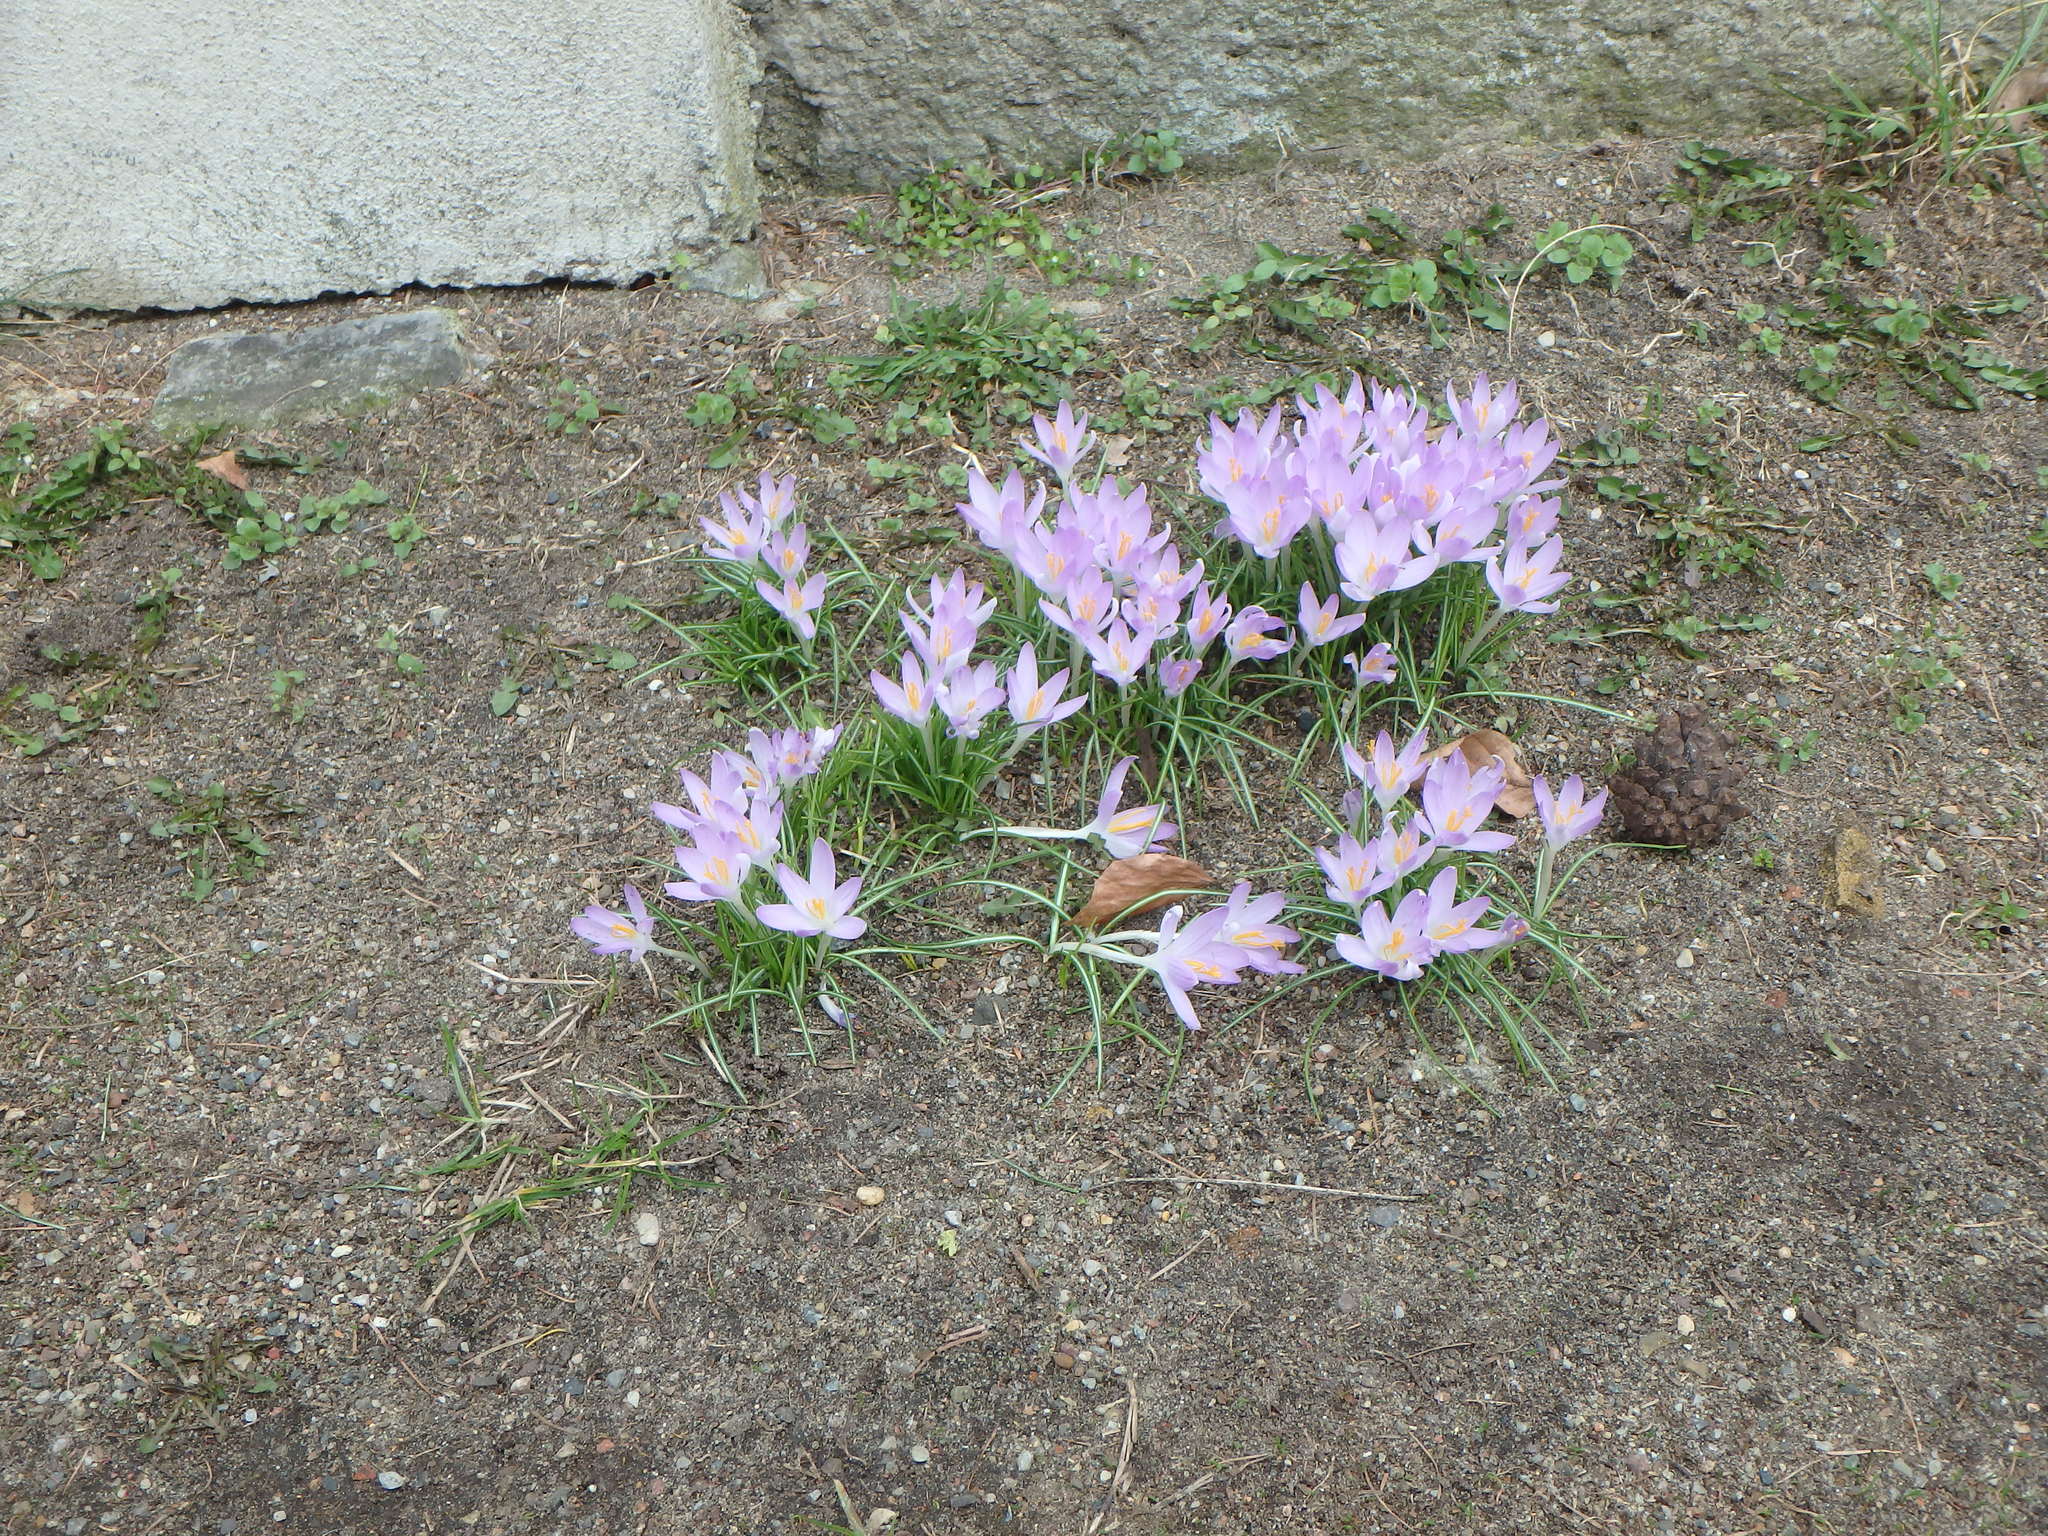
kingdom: Plantae
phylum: Tracheophyta
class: Liliopsida
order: Asparagales
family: Iridaceae
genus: Crocus
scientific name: Crocus tommasinianus
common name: Early crocus
